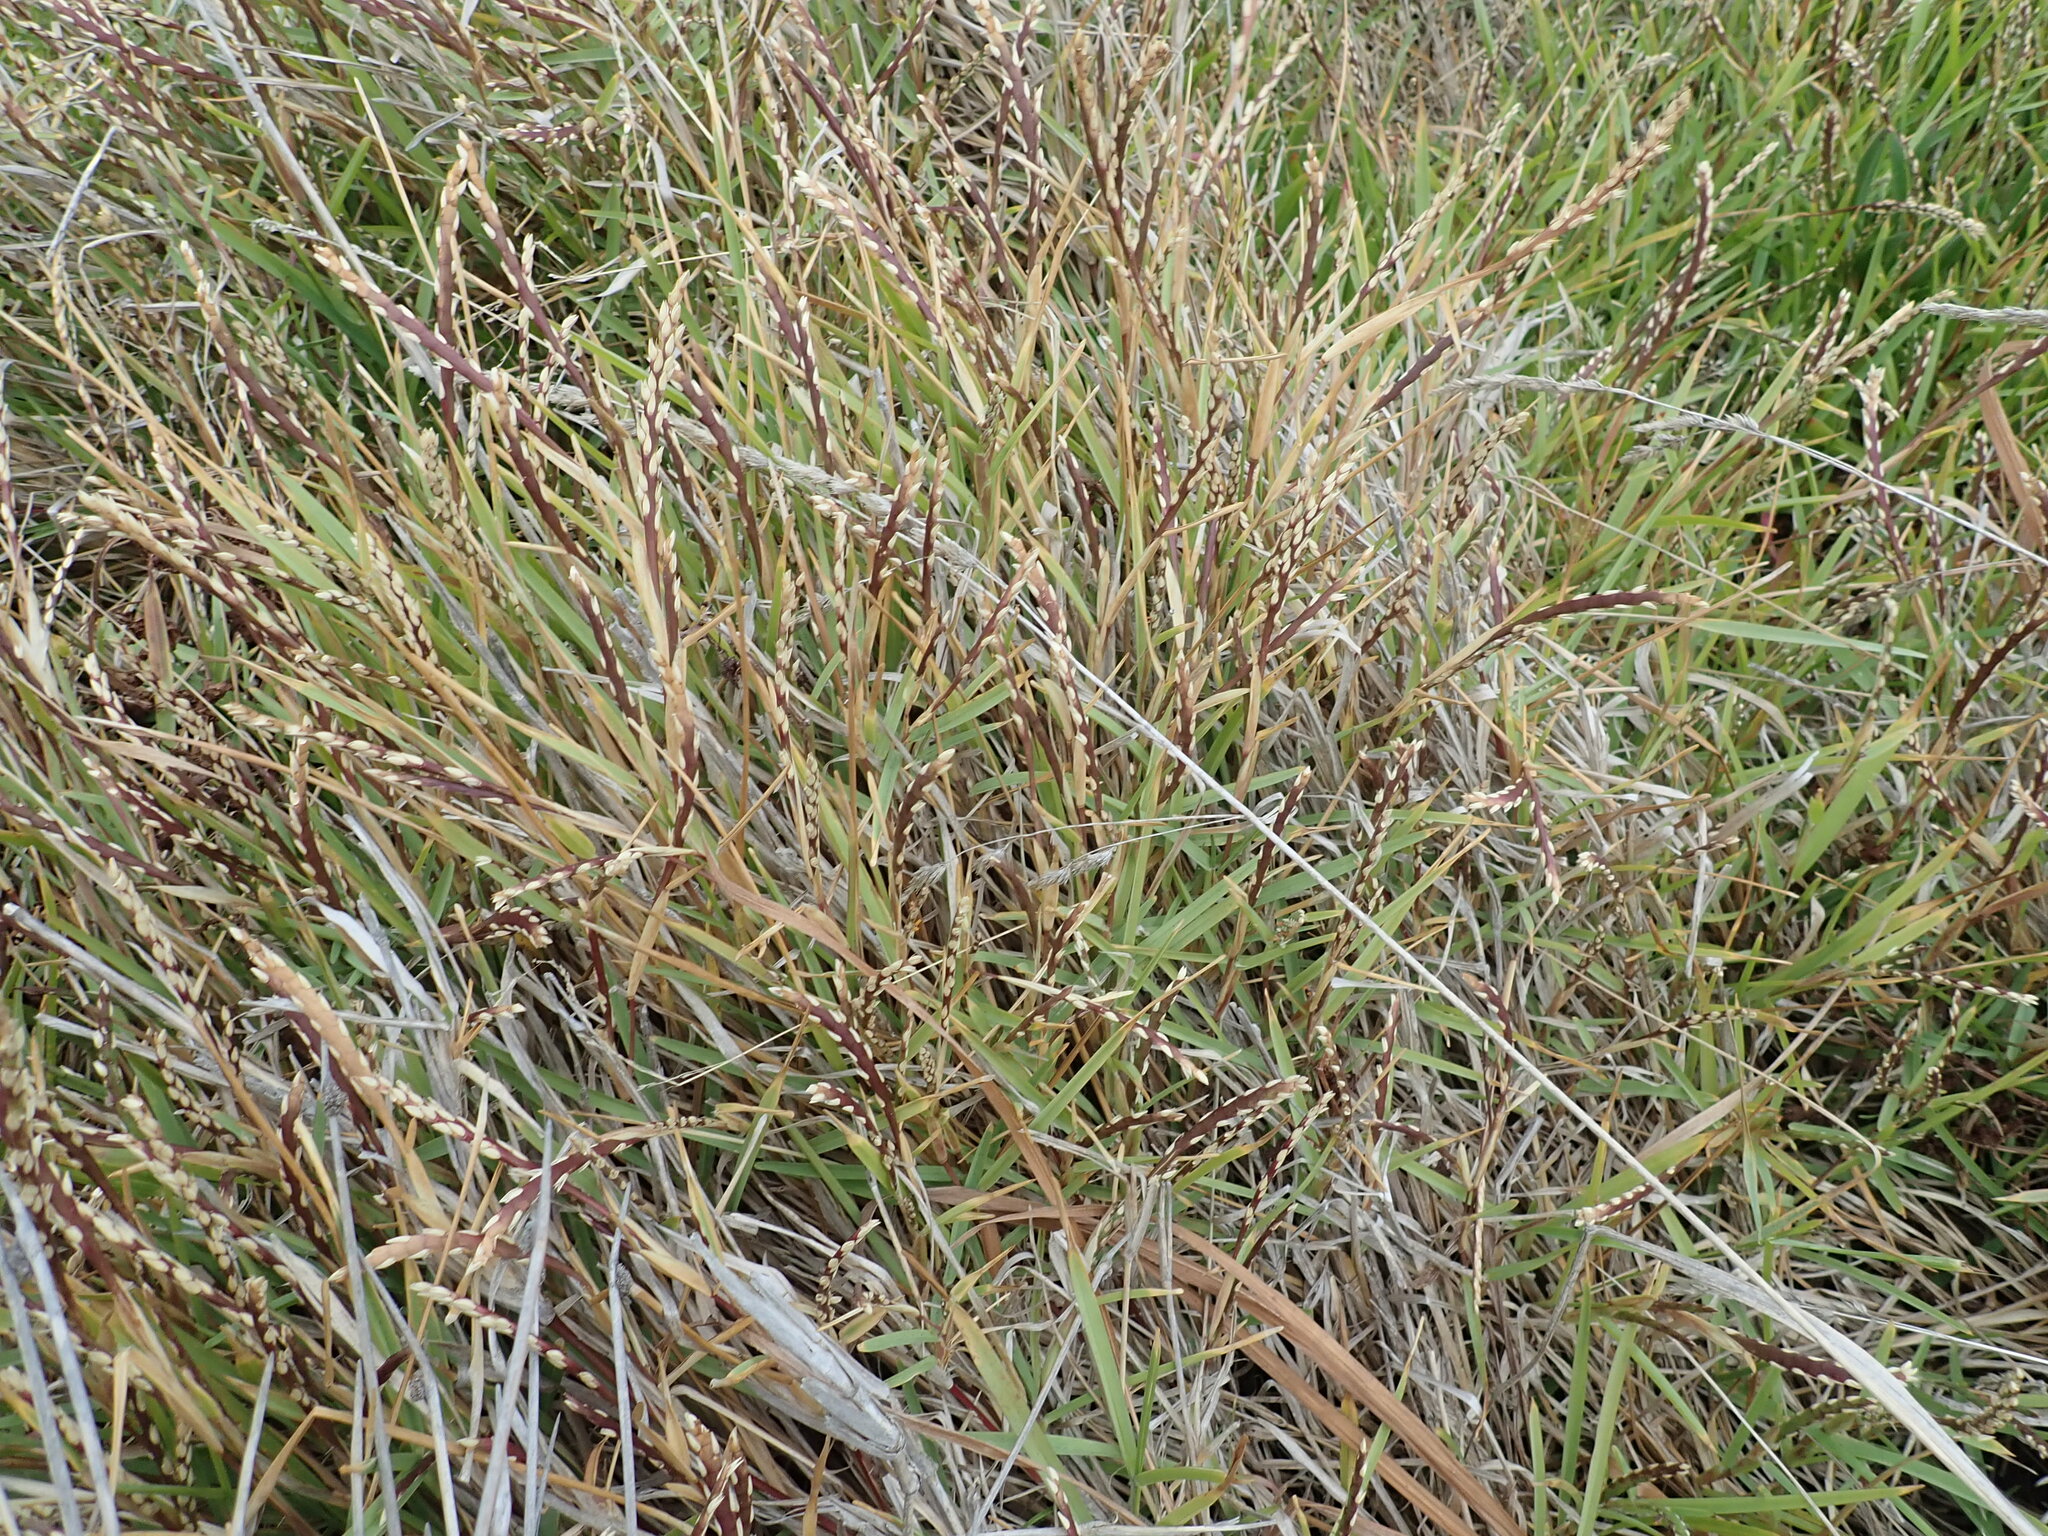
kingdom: Plantae
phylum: Tracheophyta
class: Liliopsida
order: Poales
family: Poaceae
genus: Stenotaphrum
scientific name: Stenotaphrum secundatum
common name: St. augustine grass
